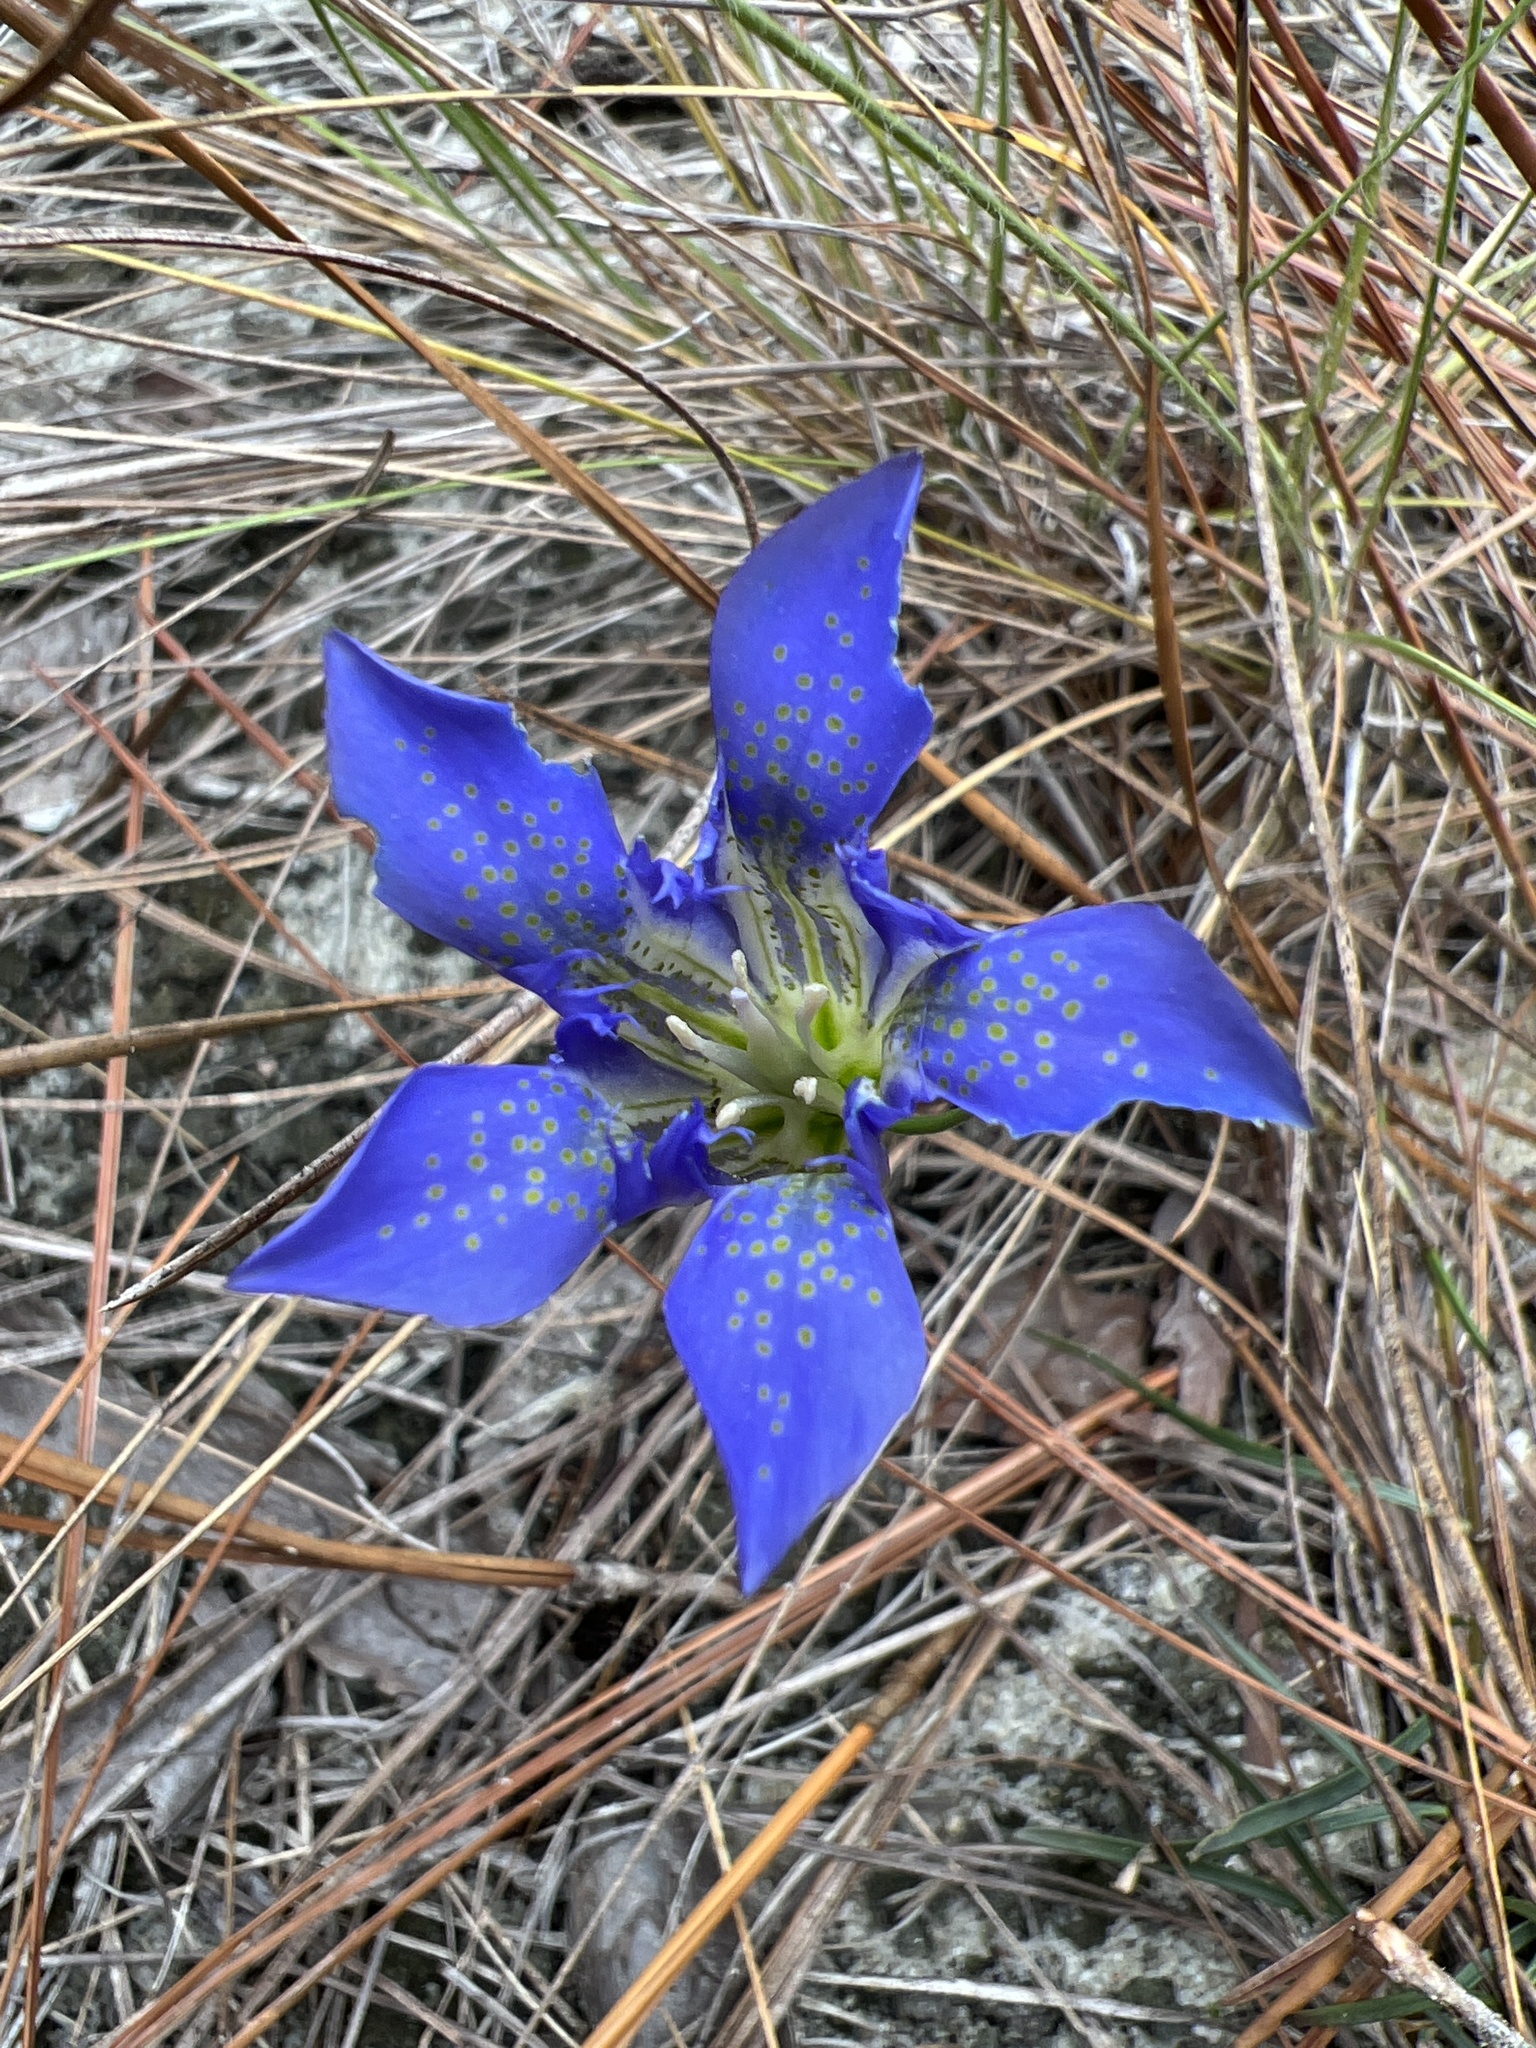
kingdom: Plantae
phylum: Tracheophyta
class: Magnoliopsida
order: Gentianales
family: Gentianaceae
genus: Gentiana
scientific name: Gentiana autumnalis
